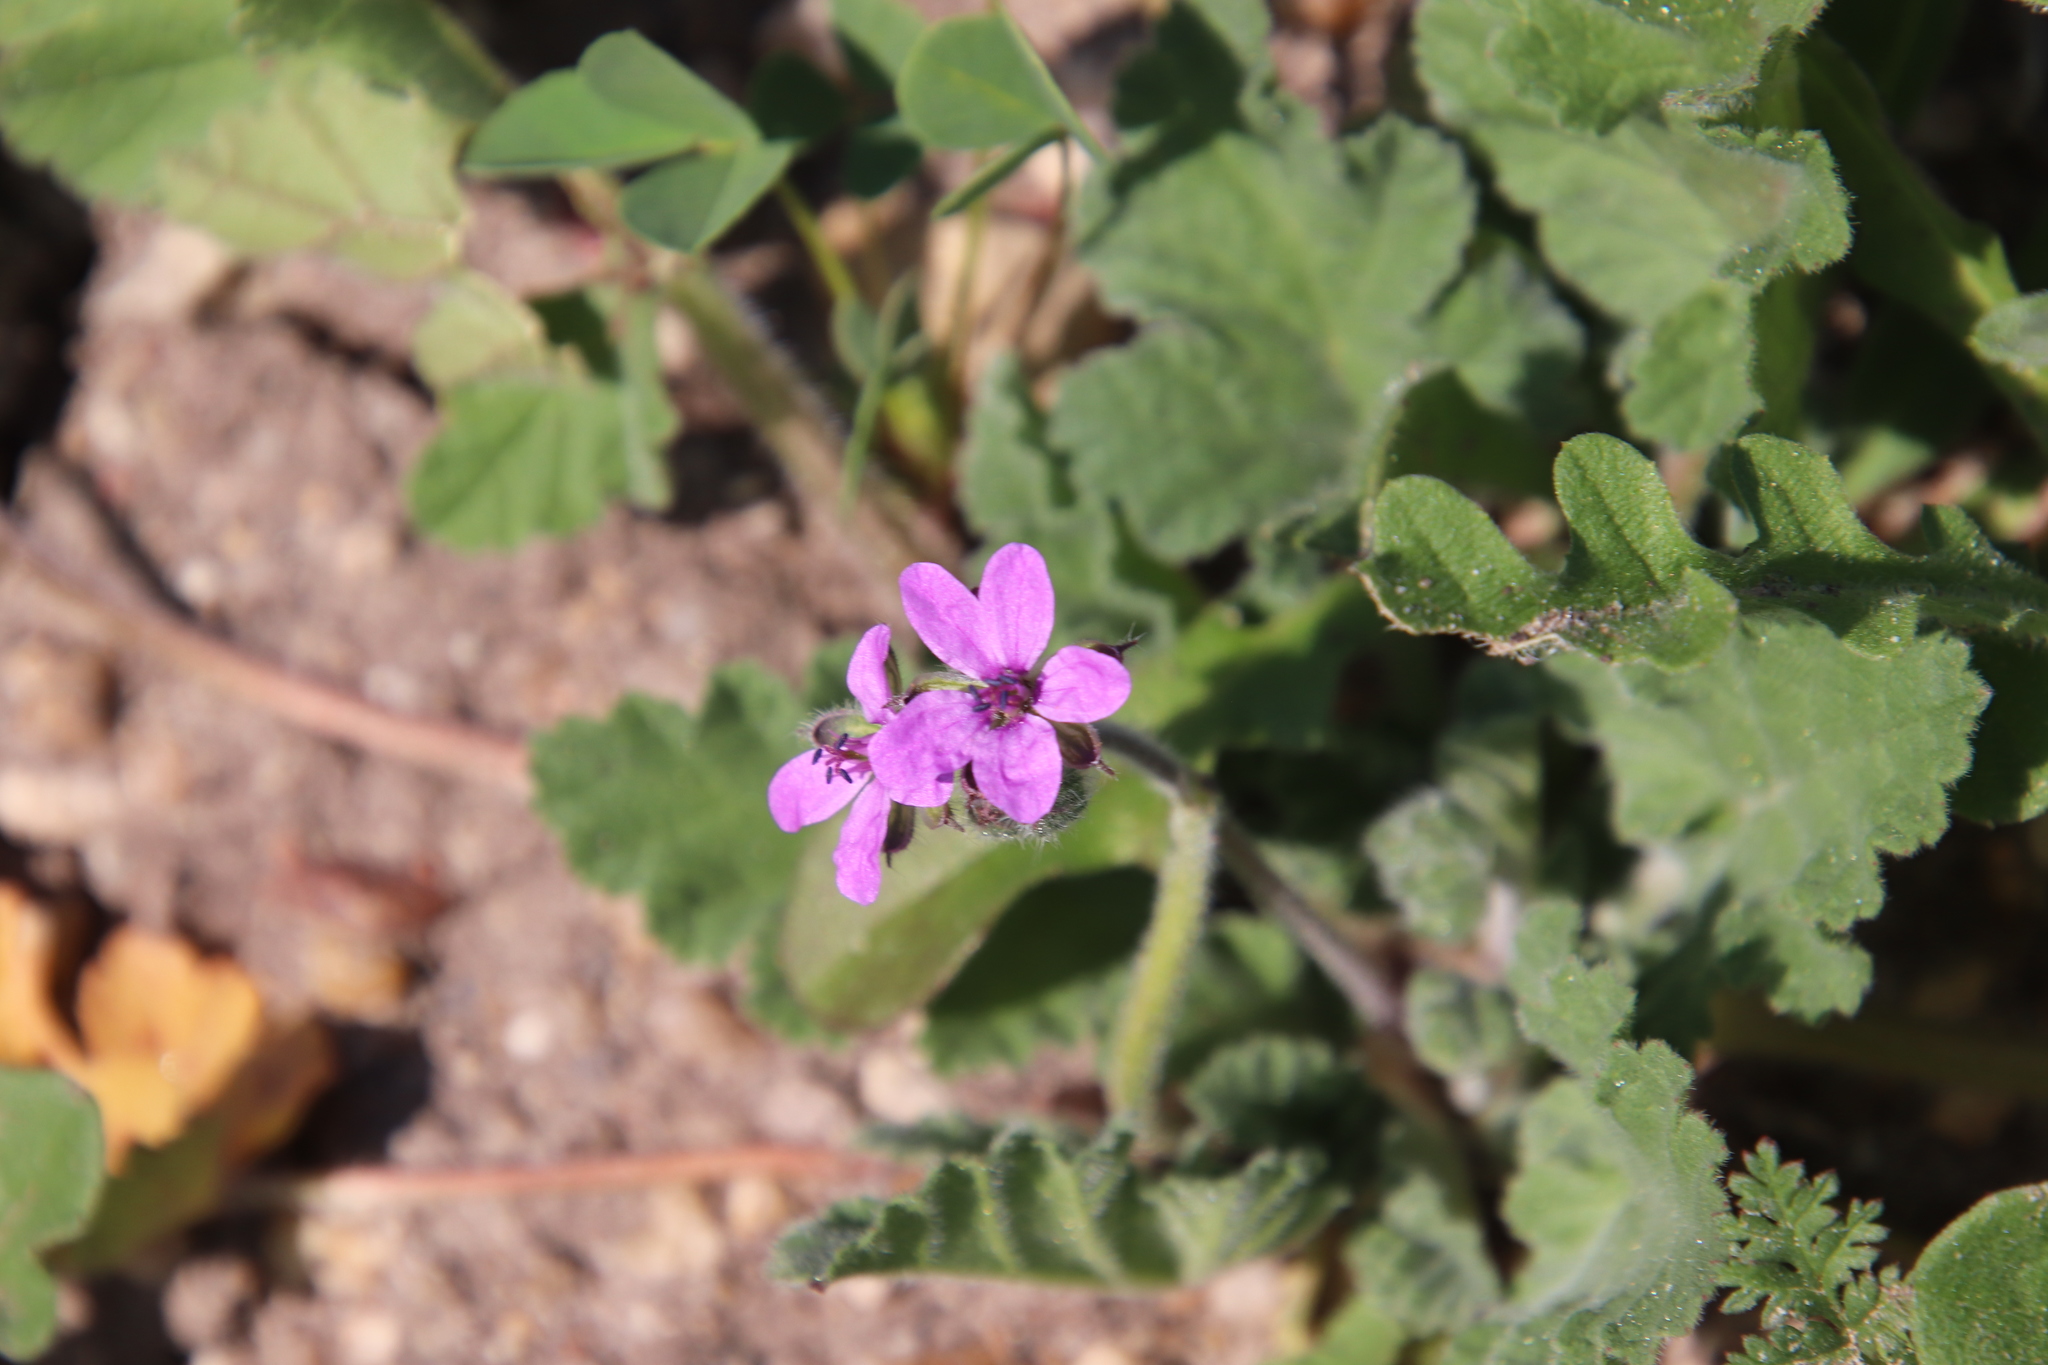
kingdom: Plantae
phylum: Tracheophyta
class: Magnoliopsida
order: Geraniales
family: Geraniaceae
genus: Erodium
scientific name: Erodium malacoides
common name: Soft stork's-bill
